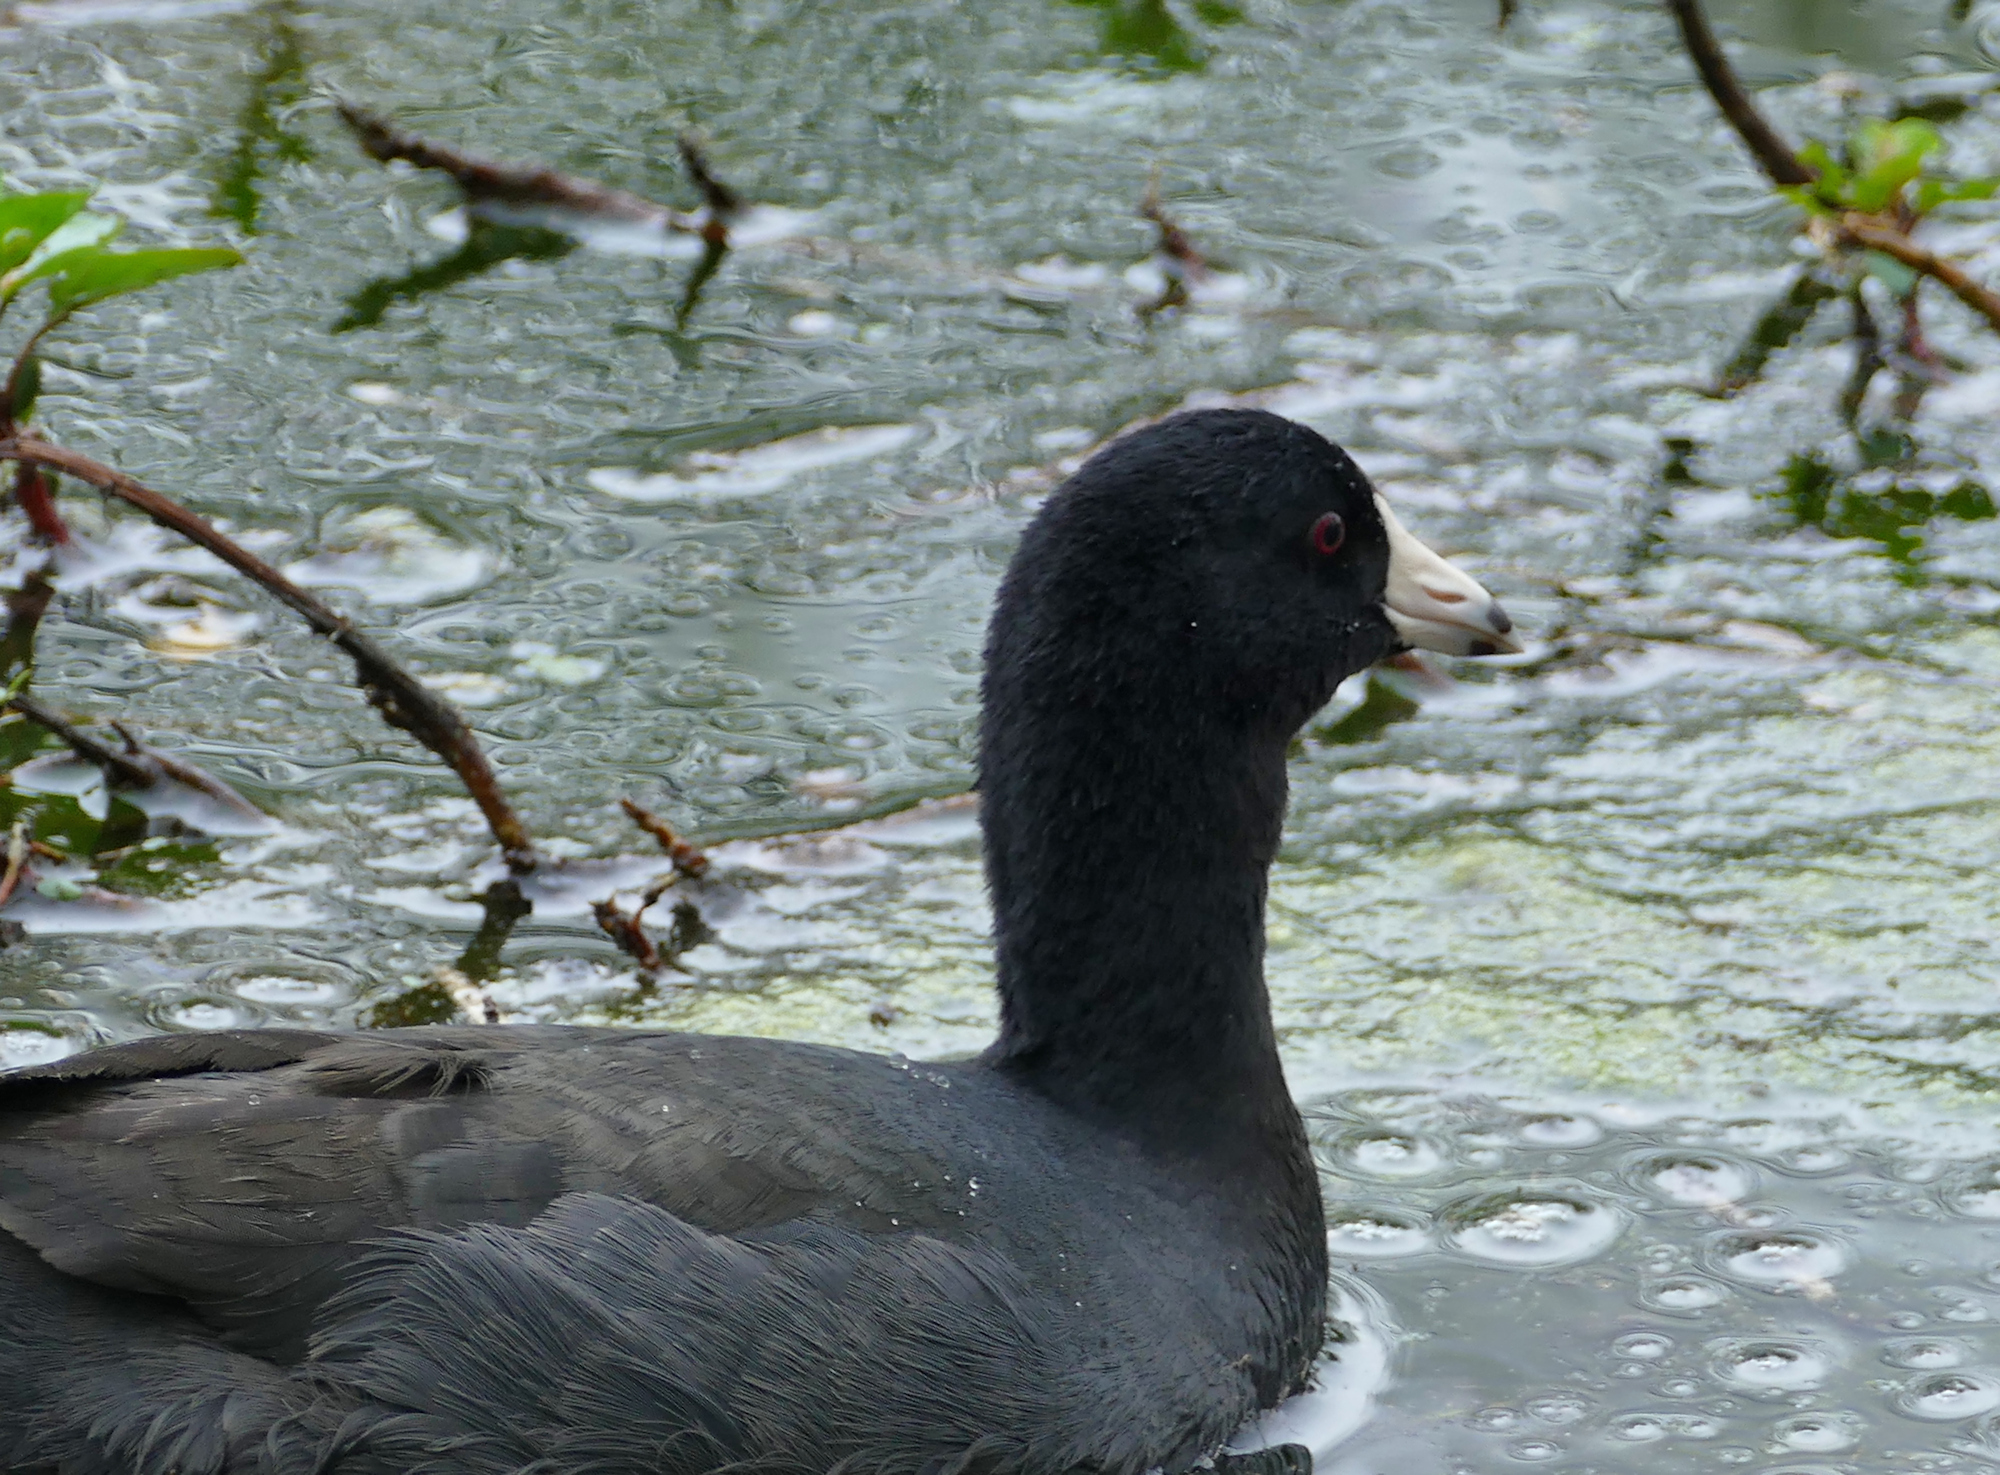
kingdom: Animalia
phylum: Chordata
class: Aves
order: Gruiformes
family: Rallidae
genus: Fulica
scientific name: Fulica americana
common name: American coot
